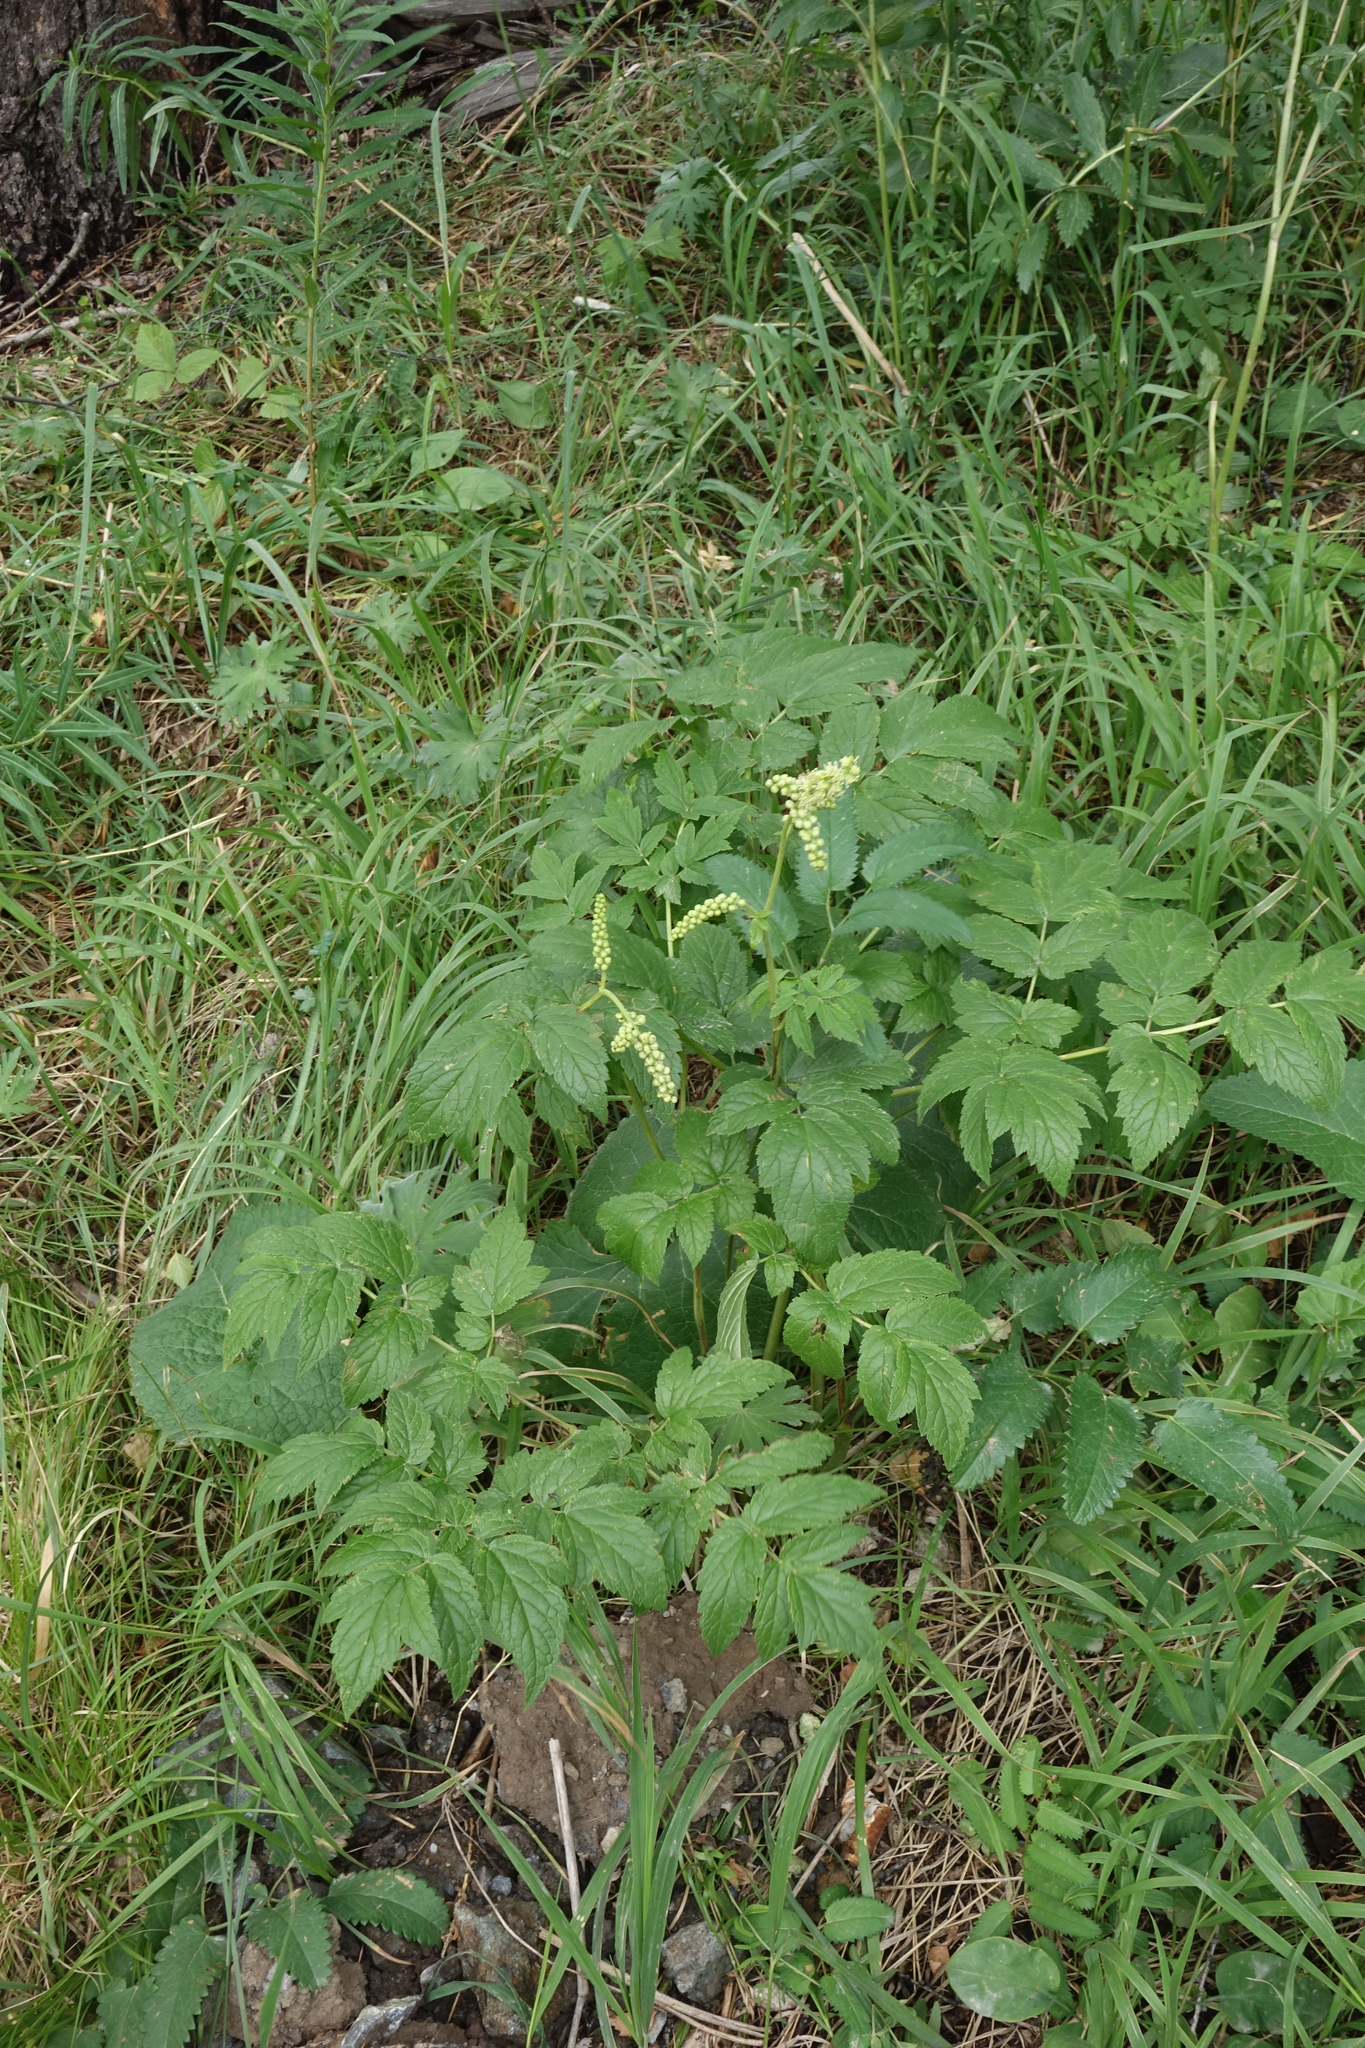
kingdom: Plantae
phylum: Tracheophyta
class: Magnoliopsida
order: Ranunculales
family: Ranunculaceae
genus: Actaea
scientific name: Actaea cimicifuga
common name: Chinese cimicifuga
